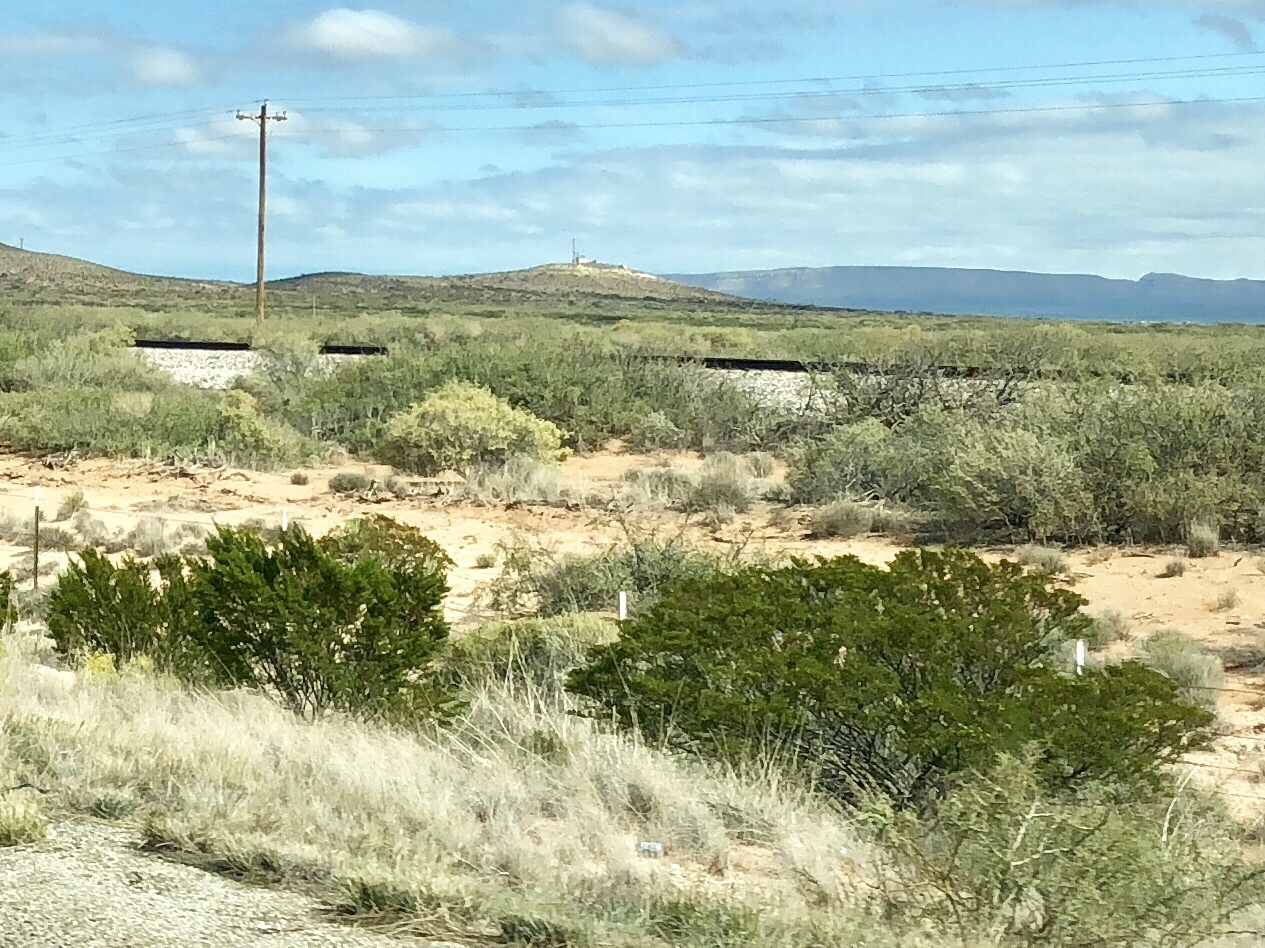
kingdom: Plantae
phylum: Tracheophyta
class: Magnoliopsida
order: Zygophyllales
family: Zygophyllaceae
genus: Larrea
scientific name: Larrea tridentata
